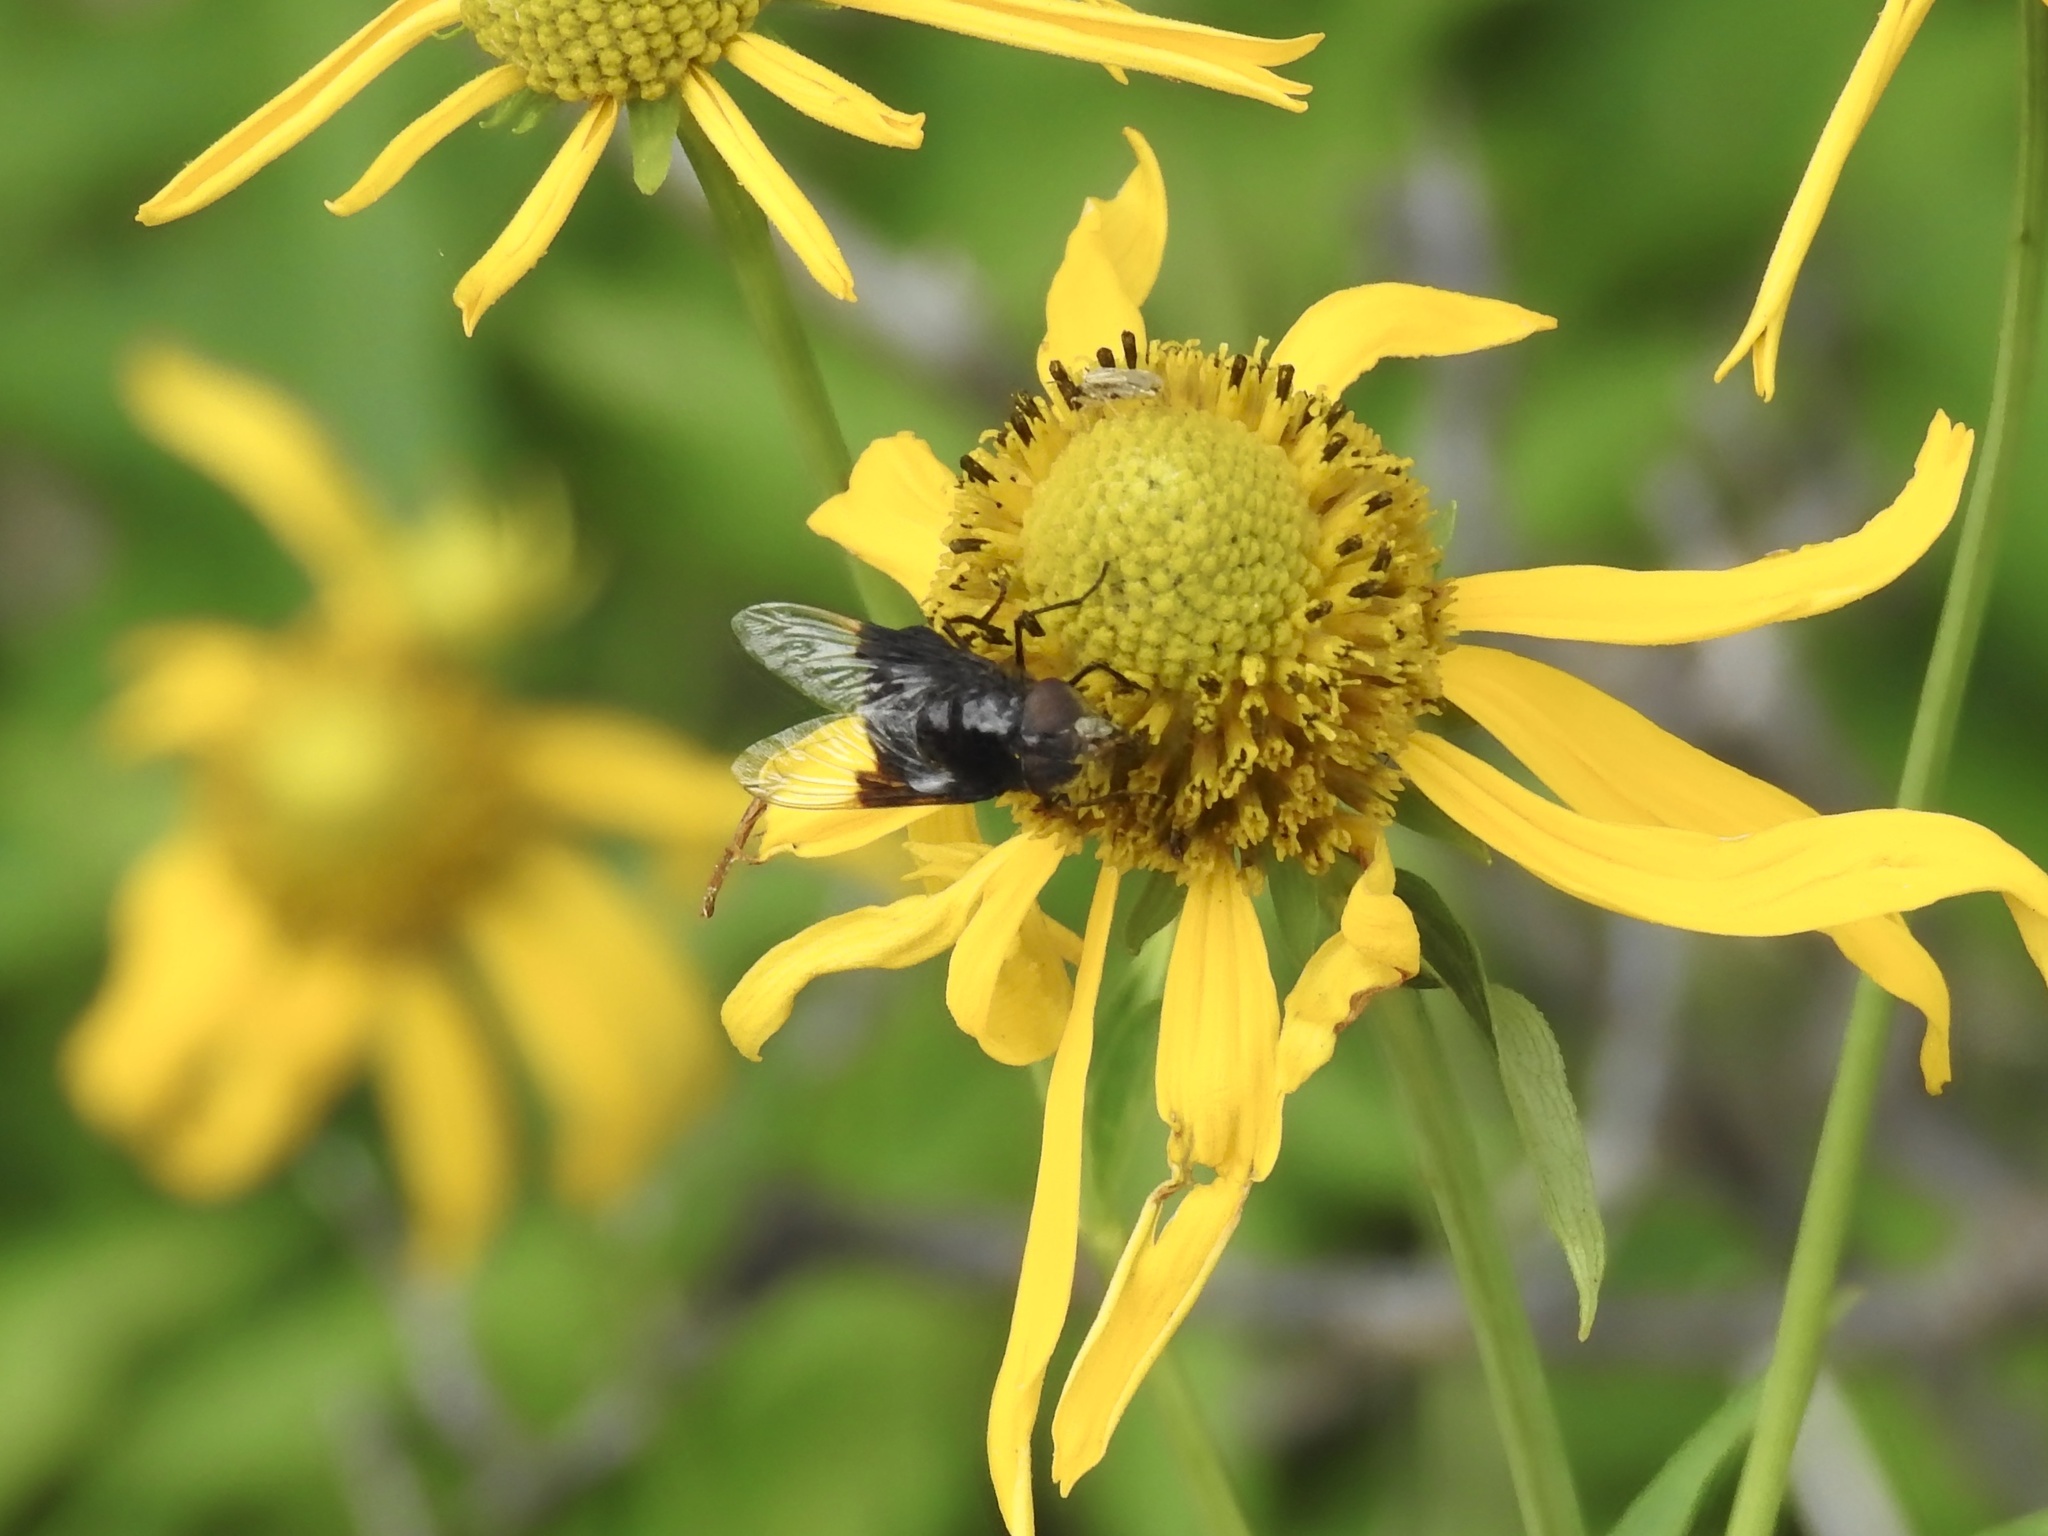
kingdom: Animalia
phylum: Arthropoda
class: Insecta
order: Diptera
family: Syrphidae
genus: Copestylum
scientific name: Copestylum violaceum
